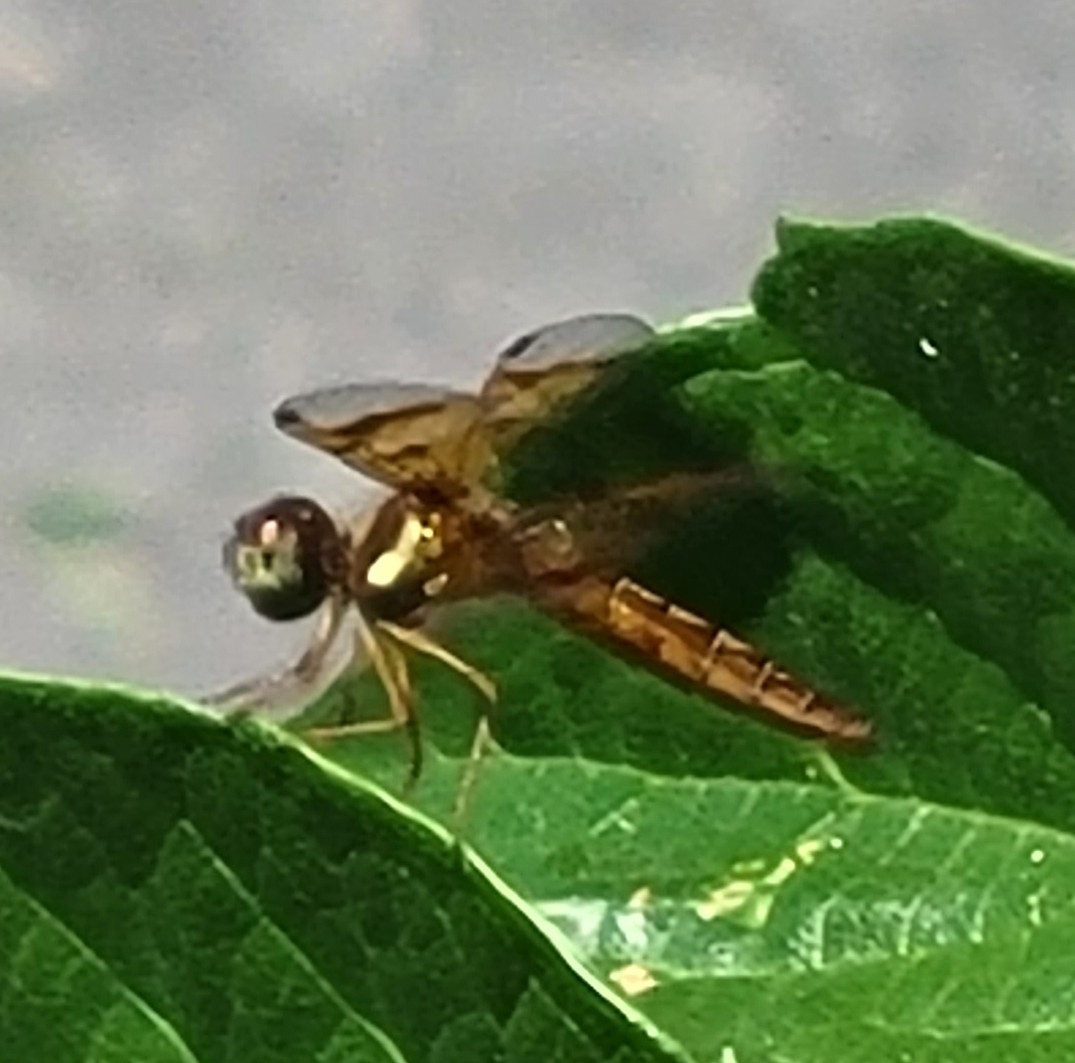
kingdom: Animalia
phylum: Arthropoda
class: Insecta
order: Odonata
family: Libellulidae
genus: Perithemis
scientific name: Perithemis tenera
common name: Eastern amberwing
